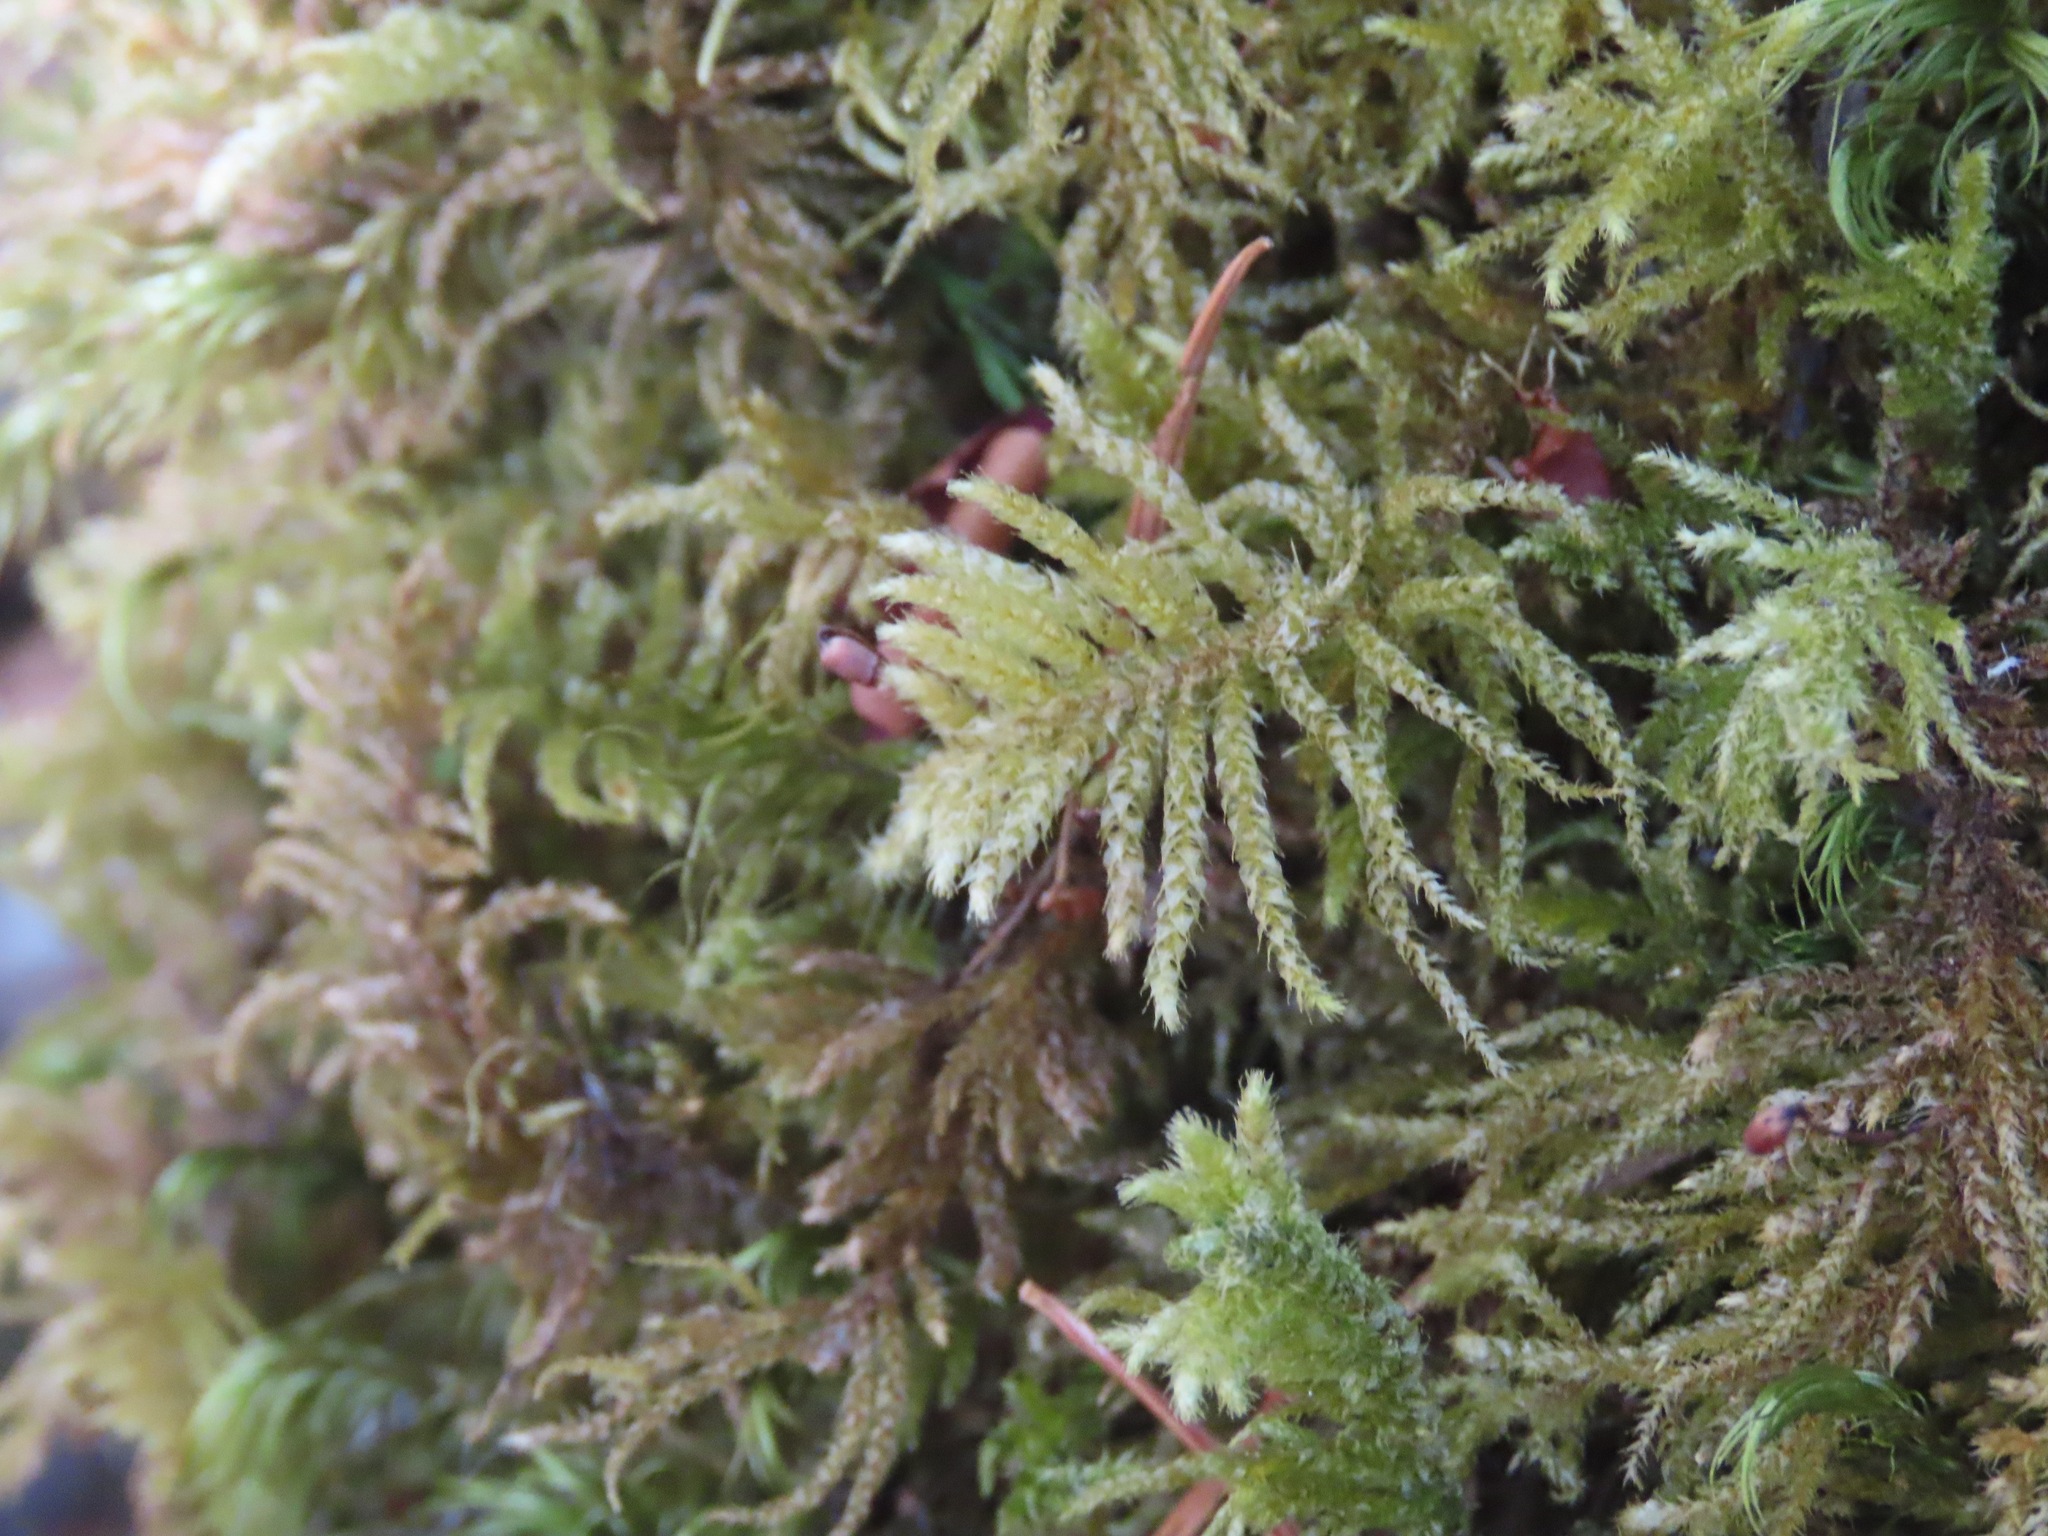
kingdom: Plantae
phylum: Bryophyta
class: Bryopsida
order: Hypnales
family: Brachytheciaceae
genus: Kindbergia
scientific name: Kindbergia oregana
